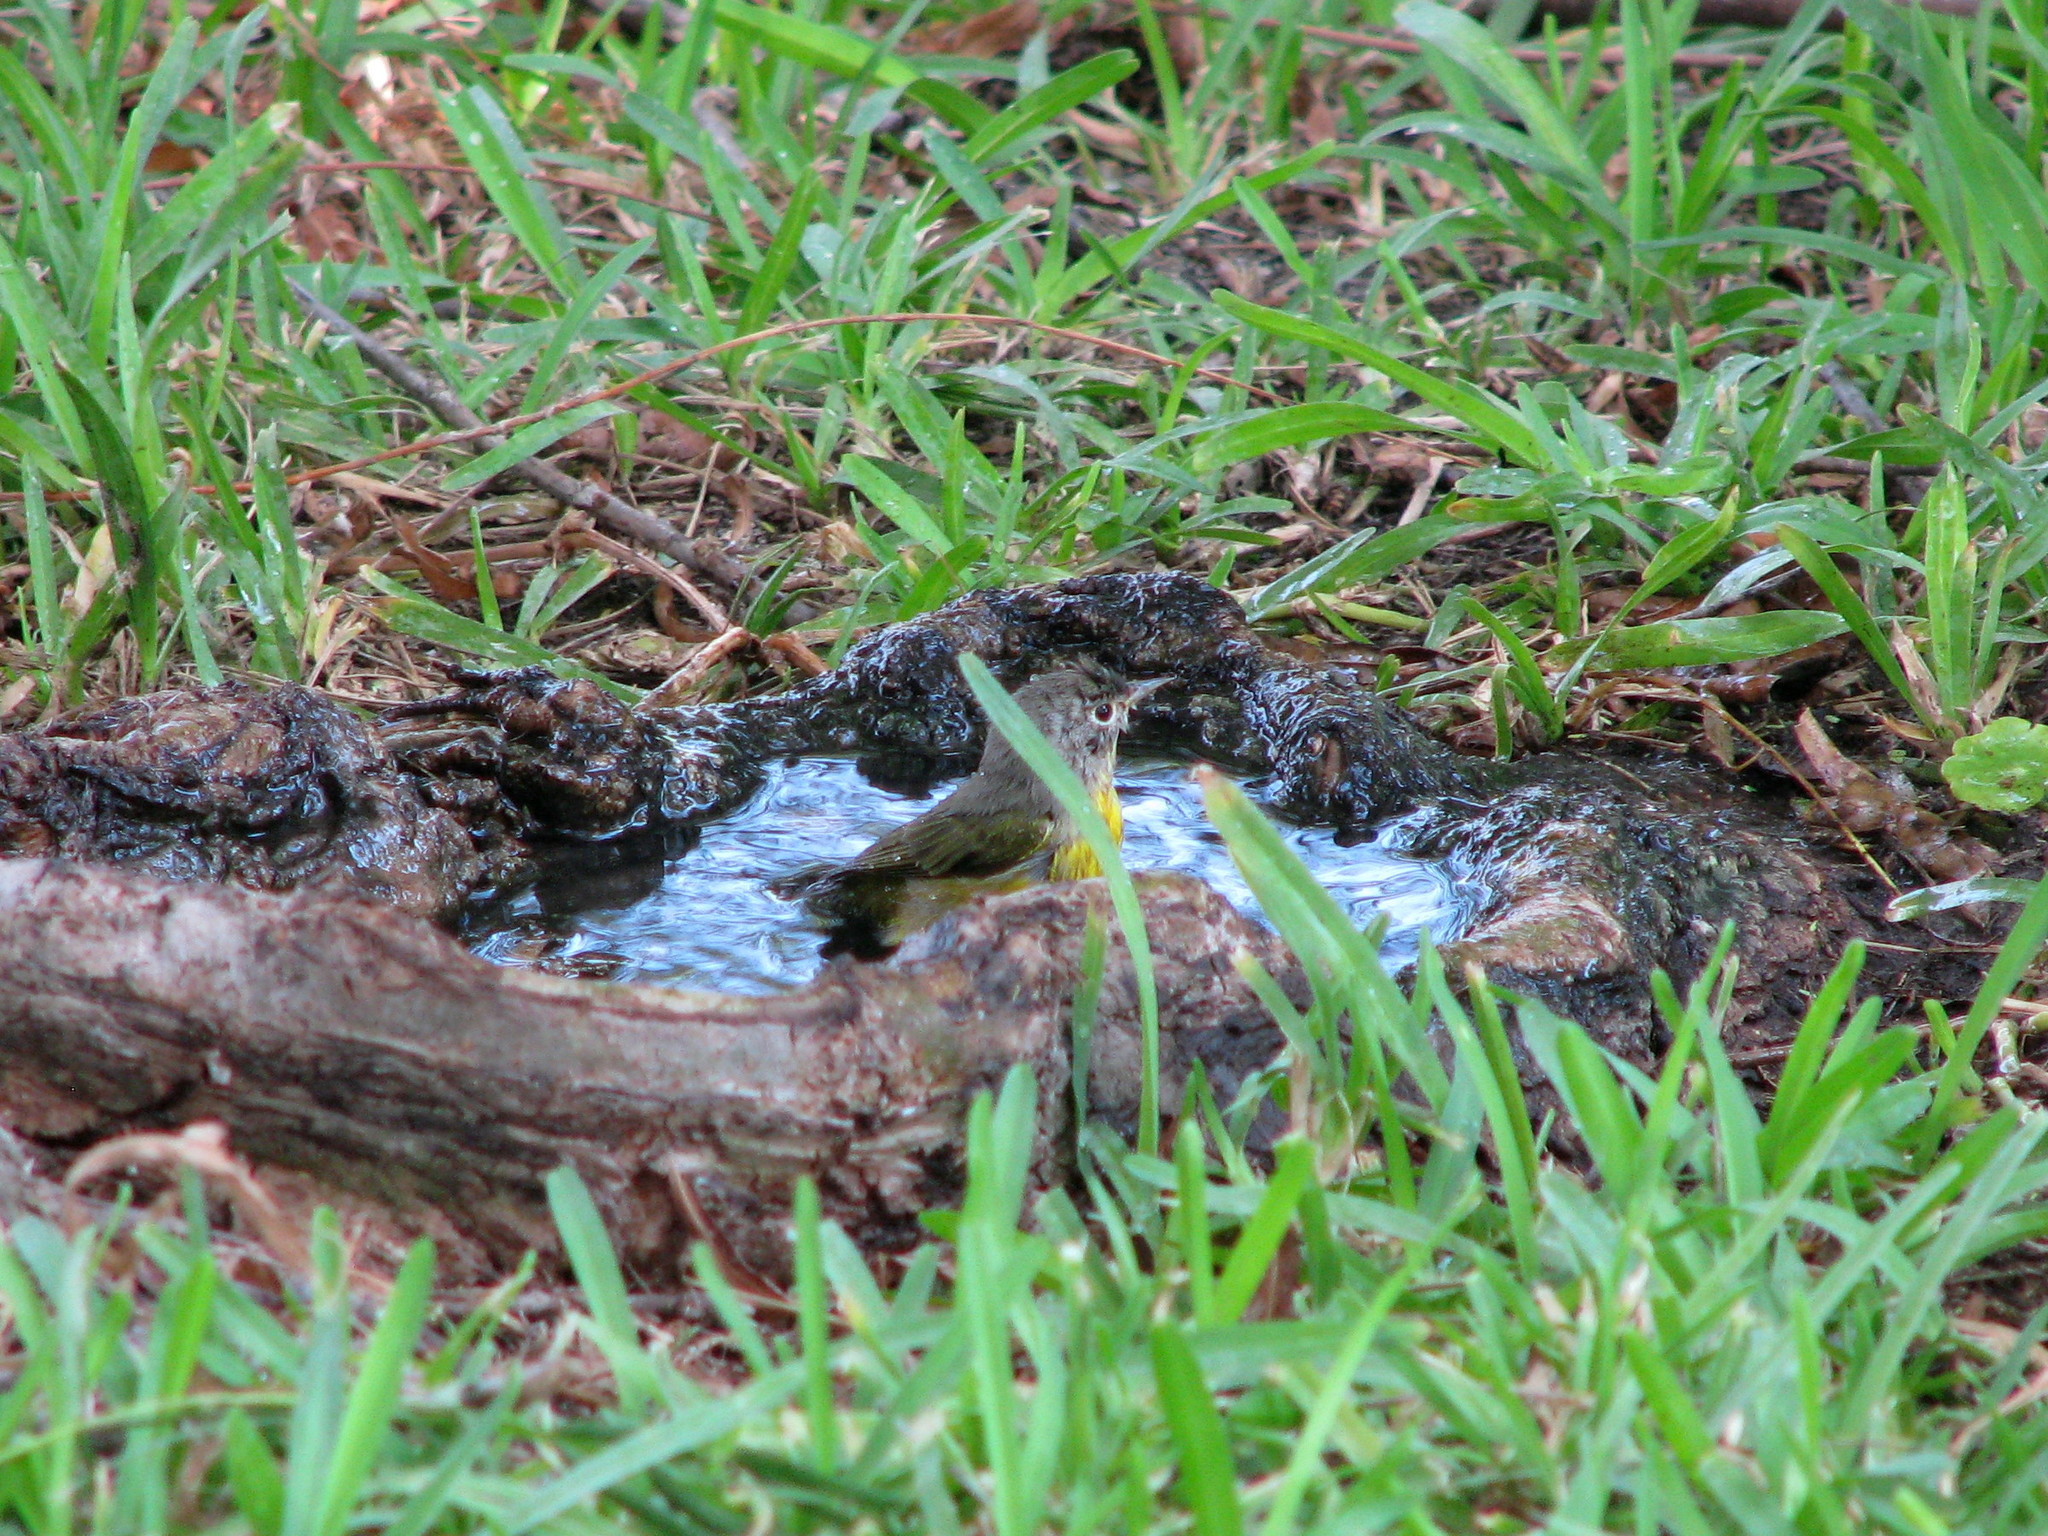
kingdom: Animalia
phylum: Chordata
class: Aves
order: Passeriformes
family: Parulidae
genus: Leiothlypis
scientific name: Leiothlypis ruficapilla
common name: Nashville warbler
